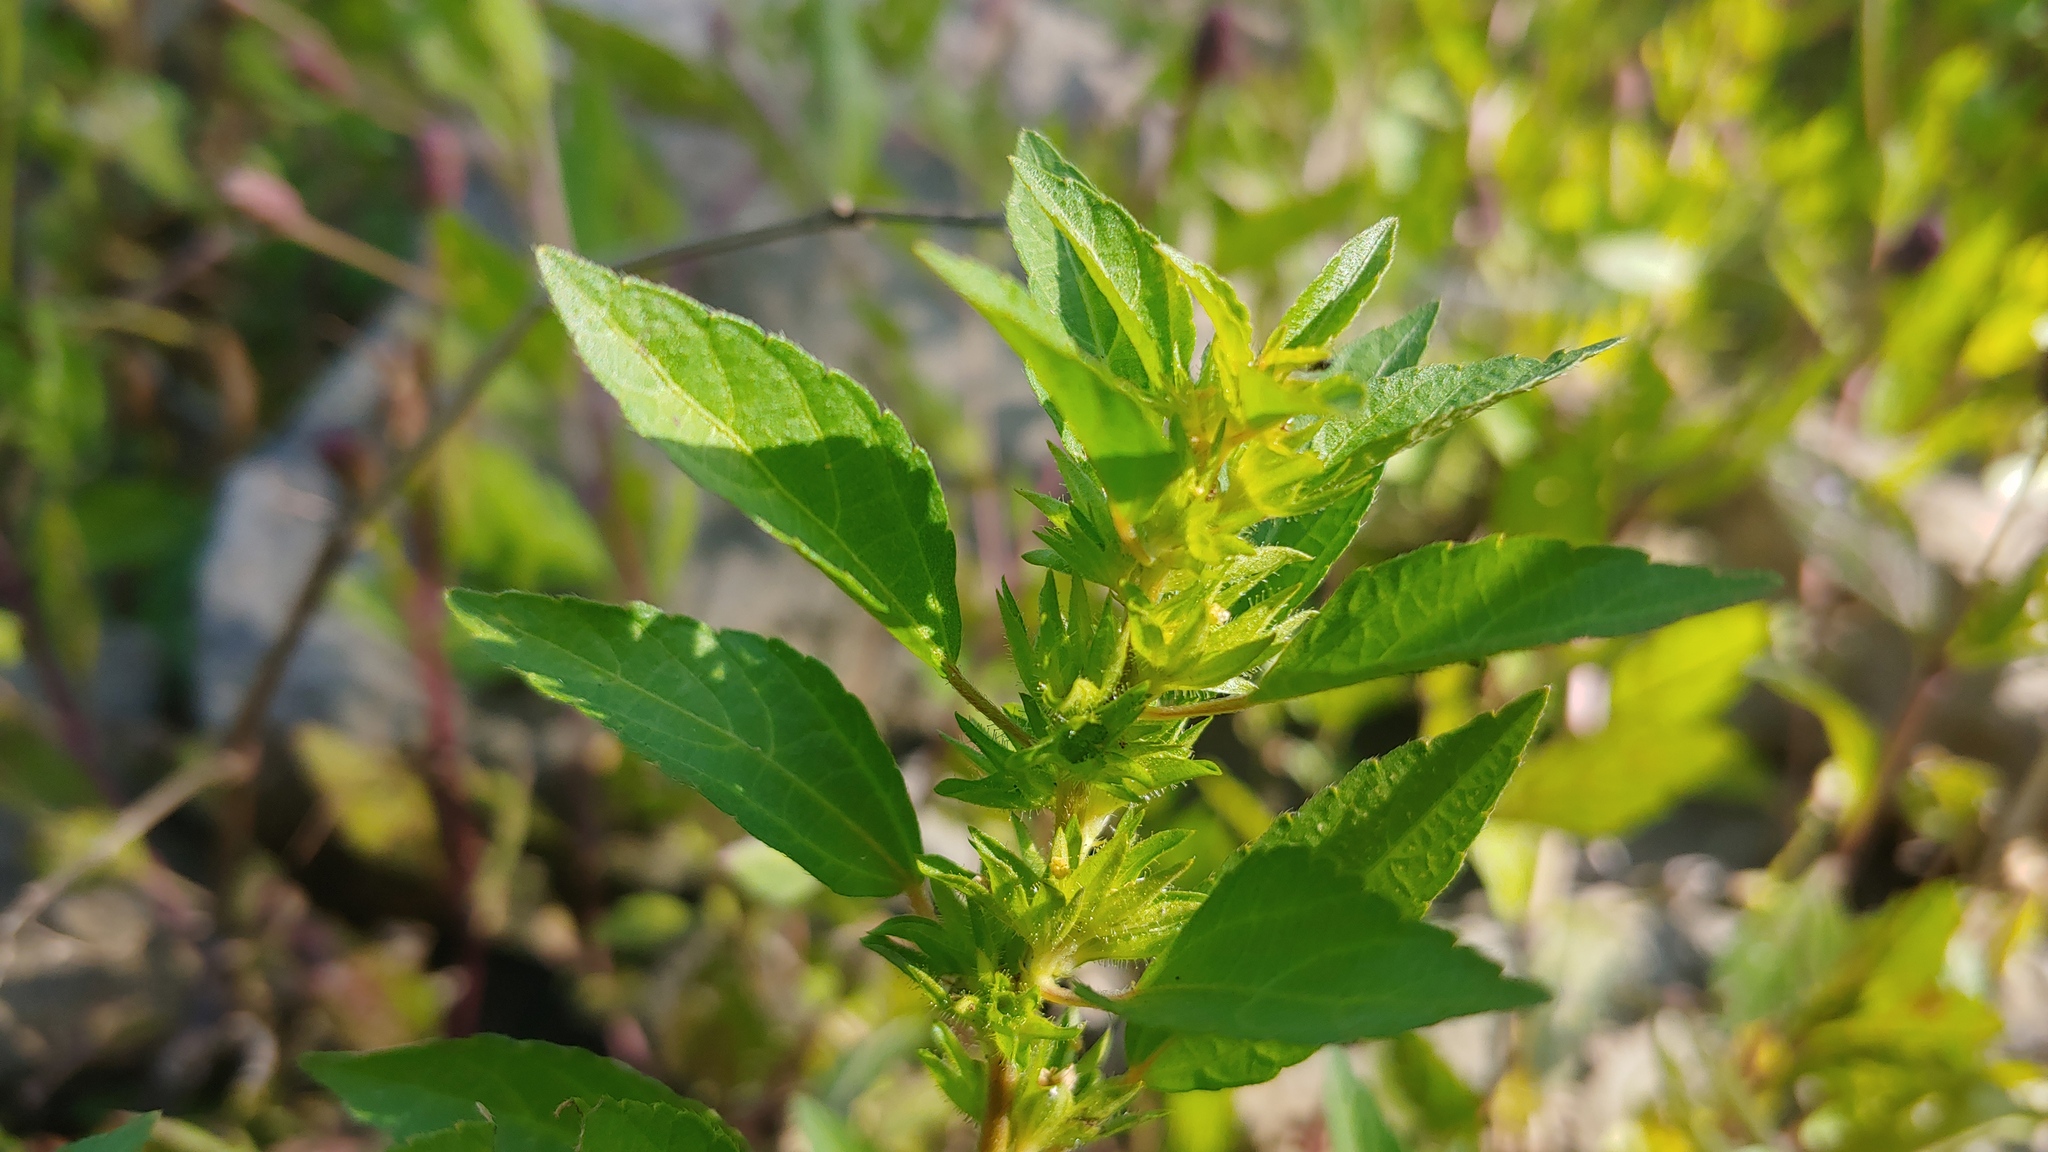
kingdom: Plantae
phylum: Tracheophyta
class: Magnoliopsida
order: Malpighiales
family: Euphorbiaceae
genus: Acalypha
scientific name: Acalypha rhomboidea
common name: Rhombic copperleaf
